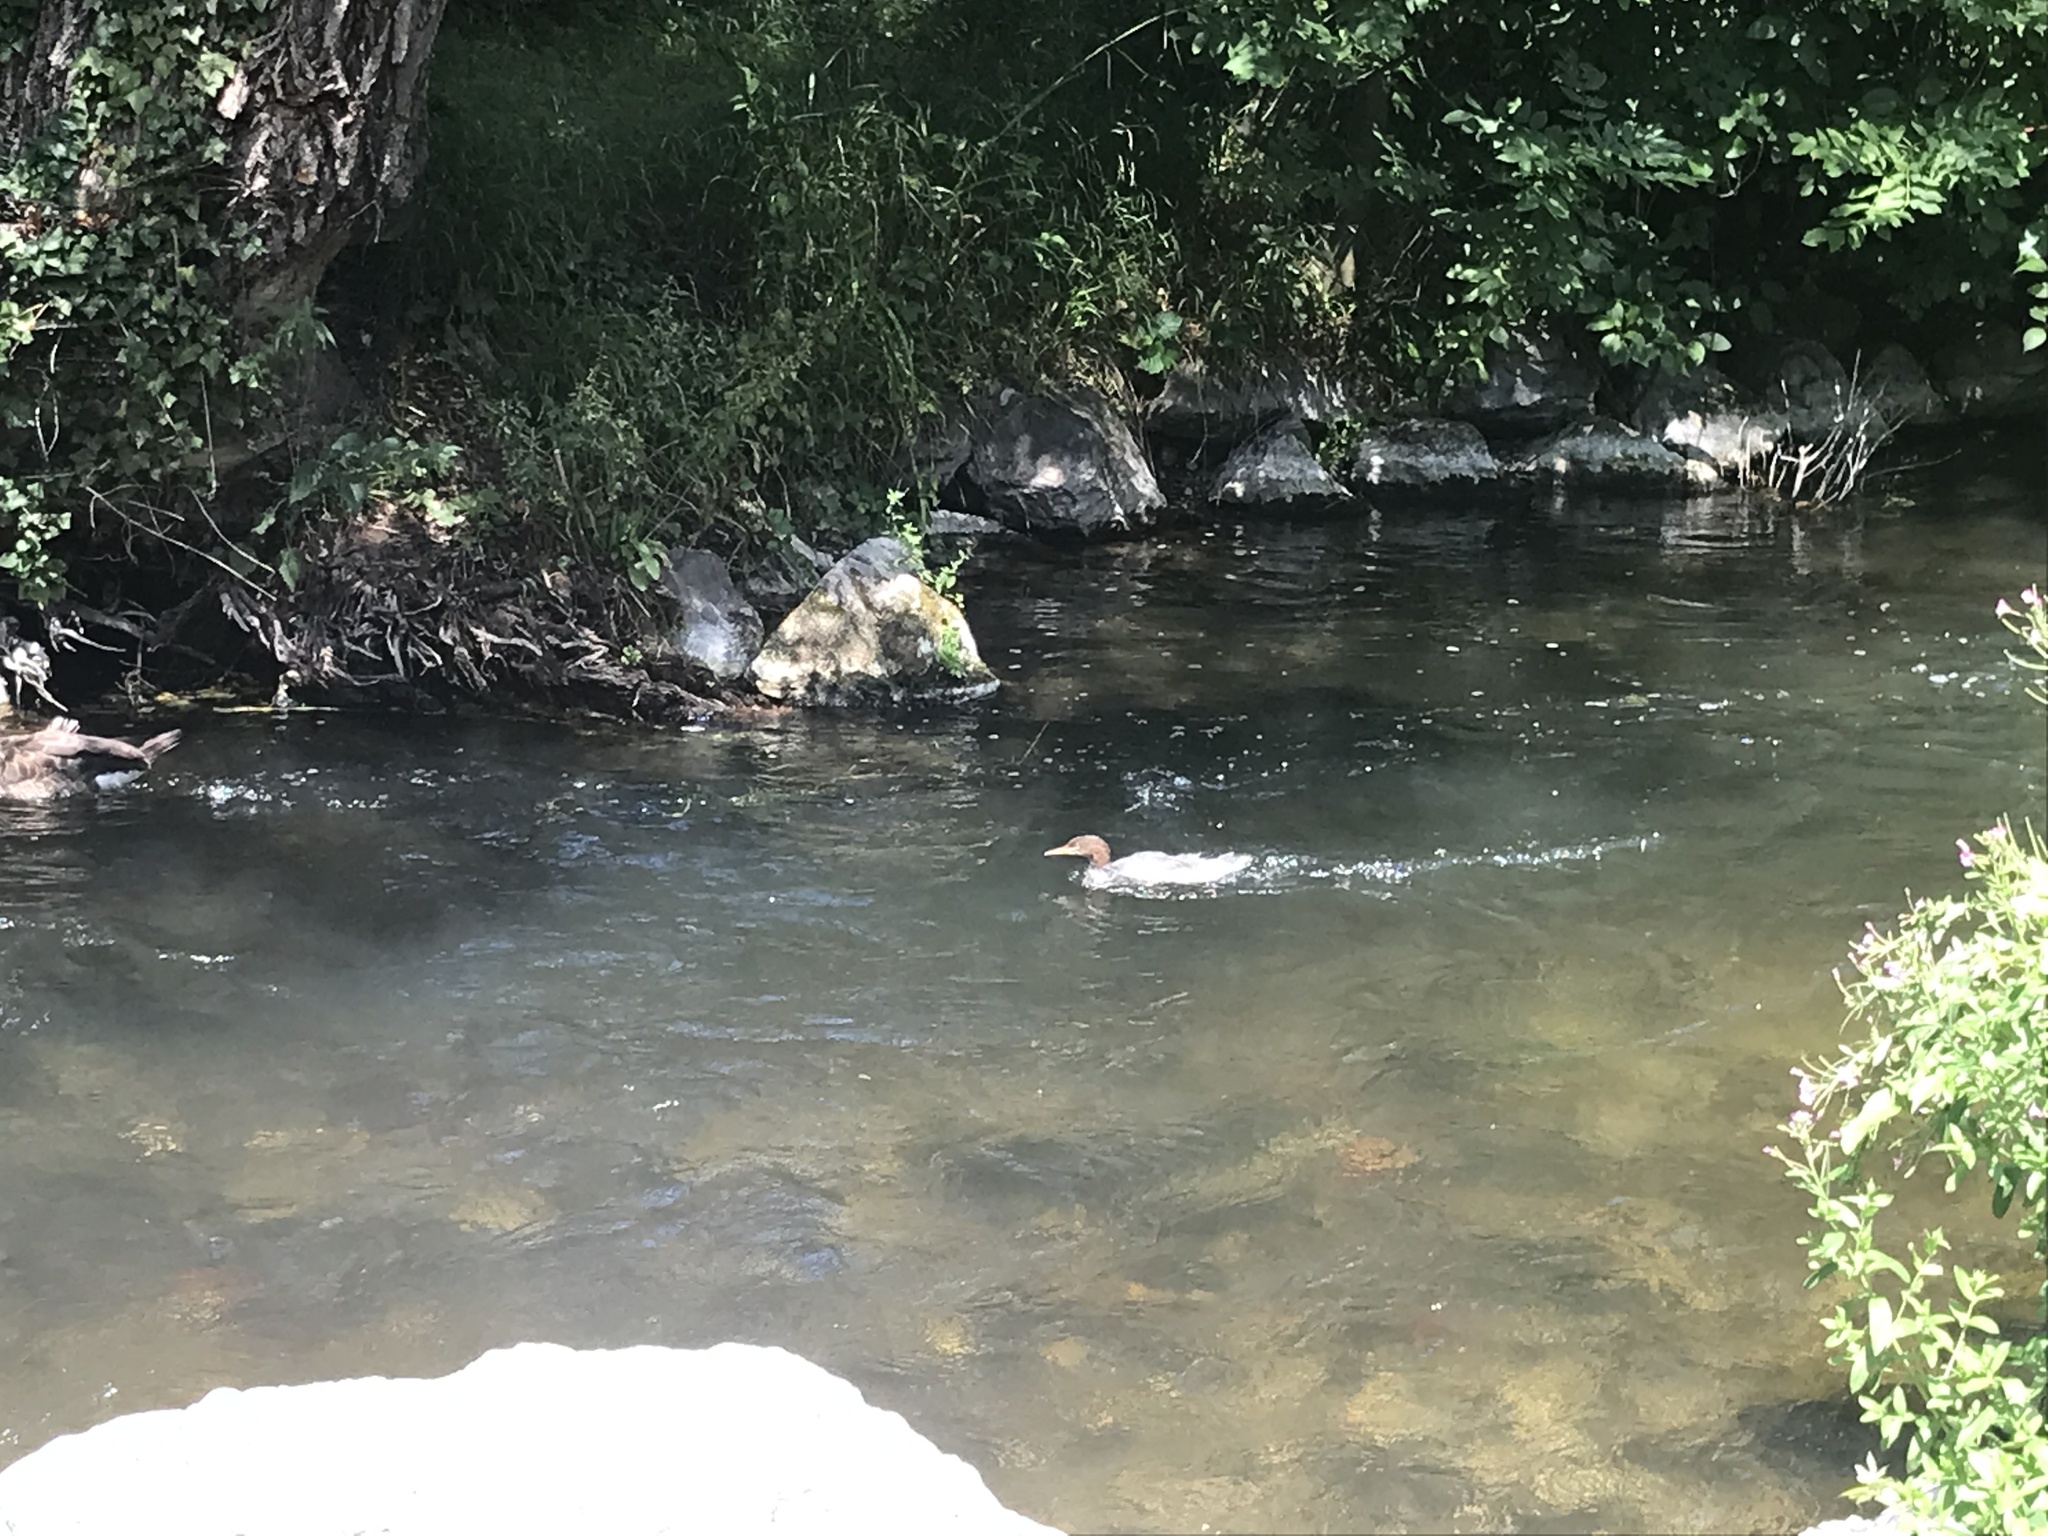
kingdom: Animalia
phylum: Chordata
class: Aves
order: Anseriformes
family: Anatidae
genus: Mergus
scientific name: Mergus merganser
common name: Common merganser
